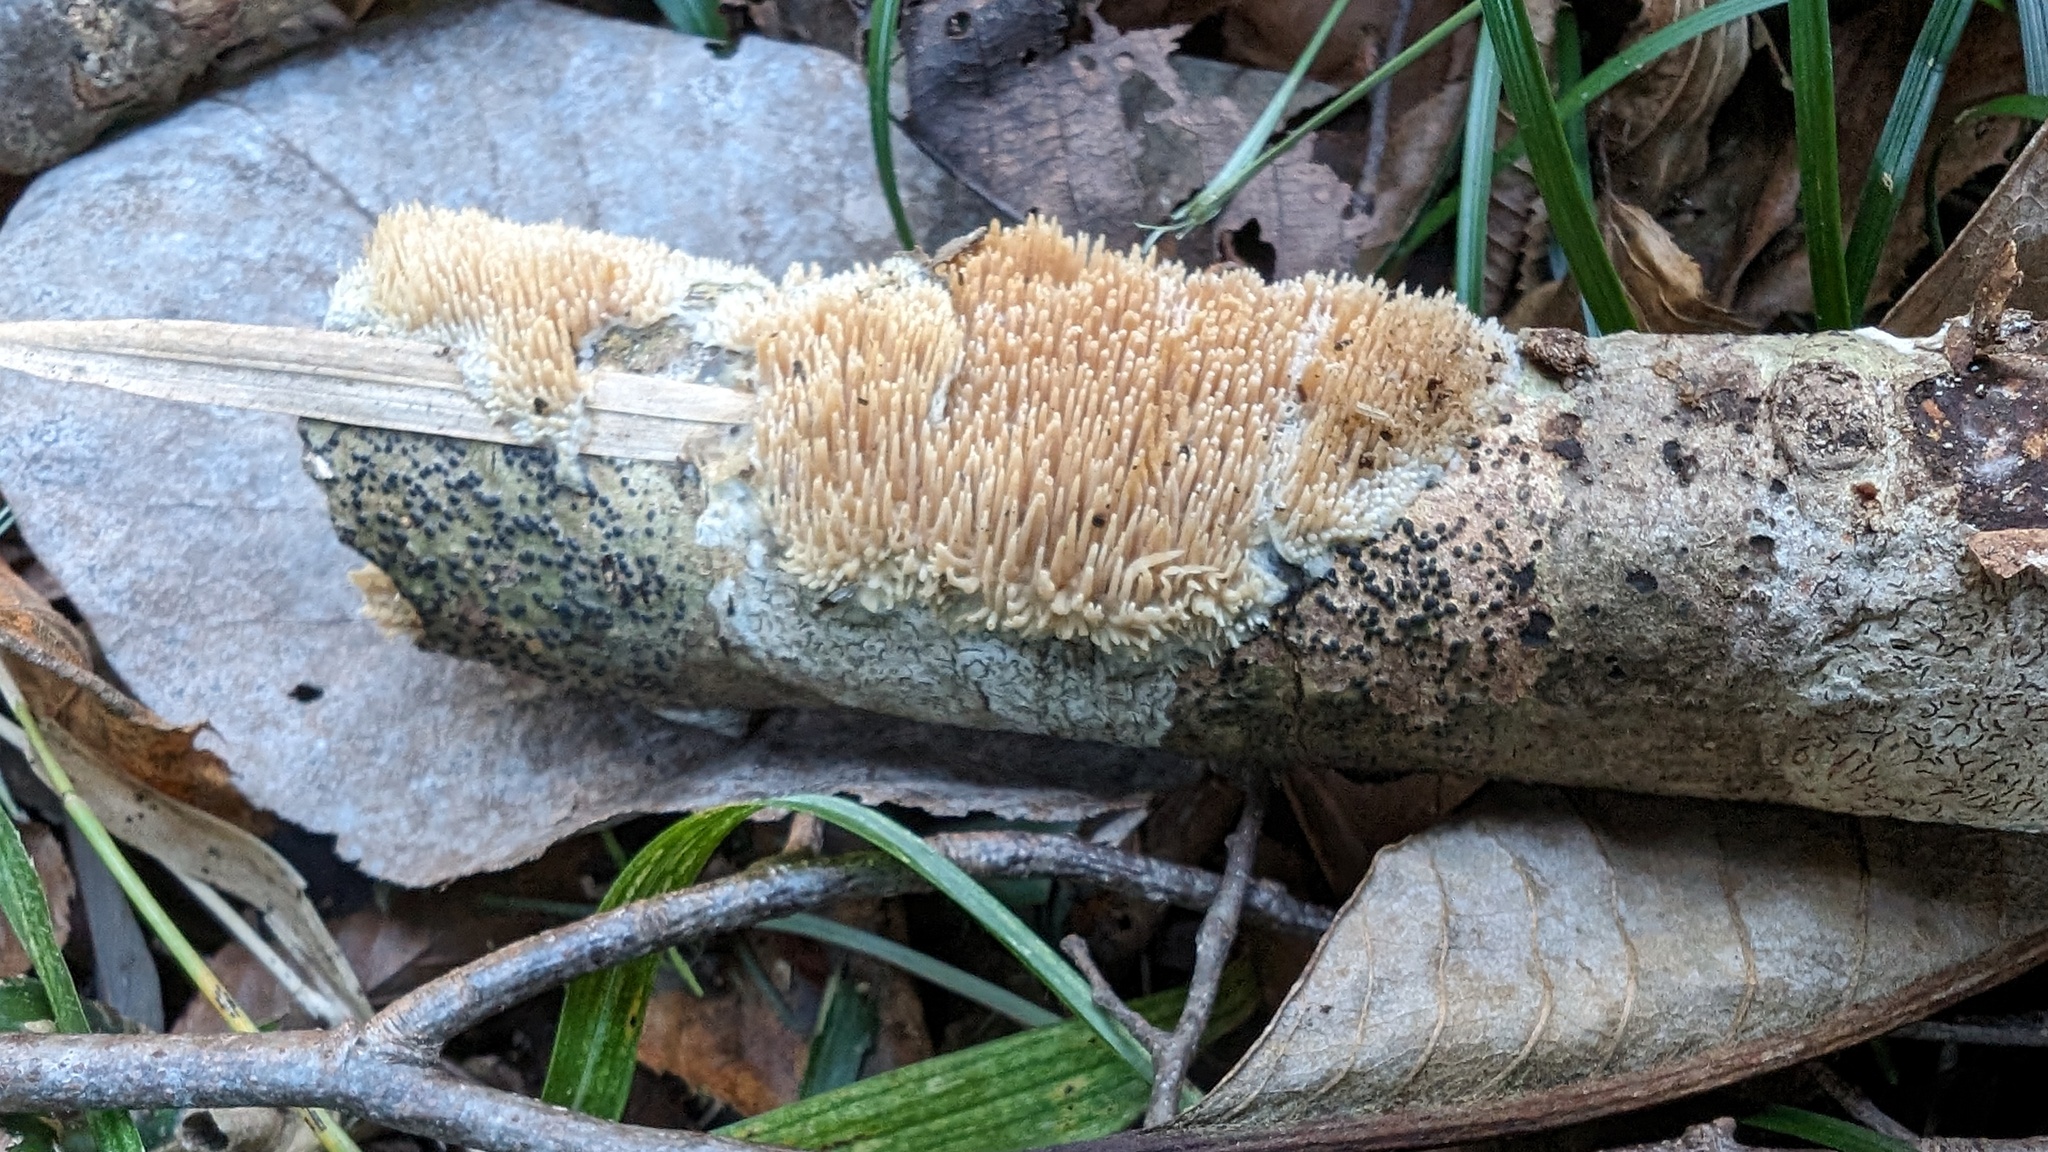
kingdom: Fungi
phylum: Basidiomycota
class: Agaricomycetes
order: Agaricales
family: Radulomycetaceae
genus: Radulomyces
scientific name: Radulomyces copelandii
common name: Asian beauty
